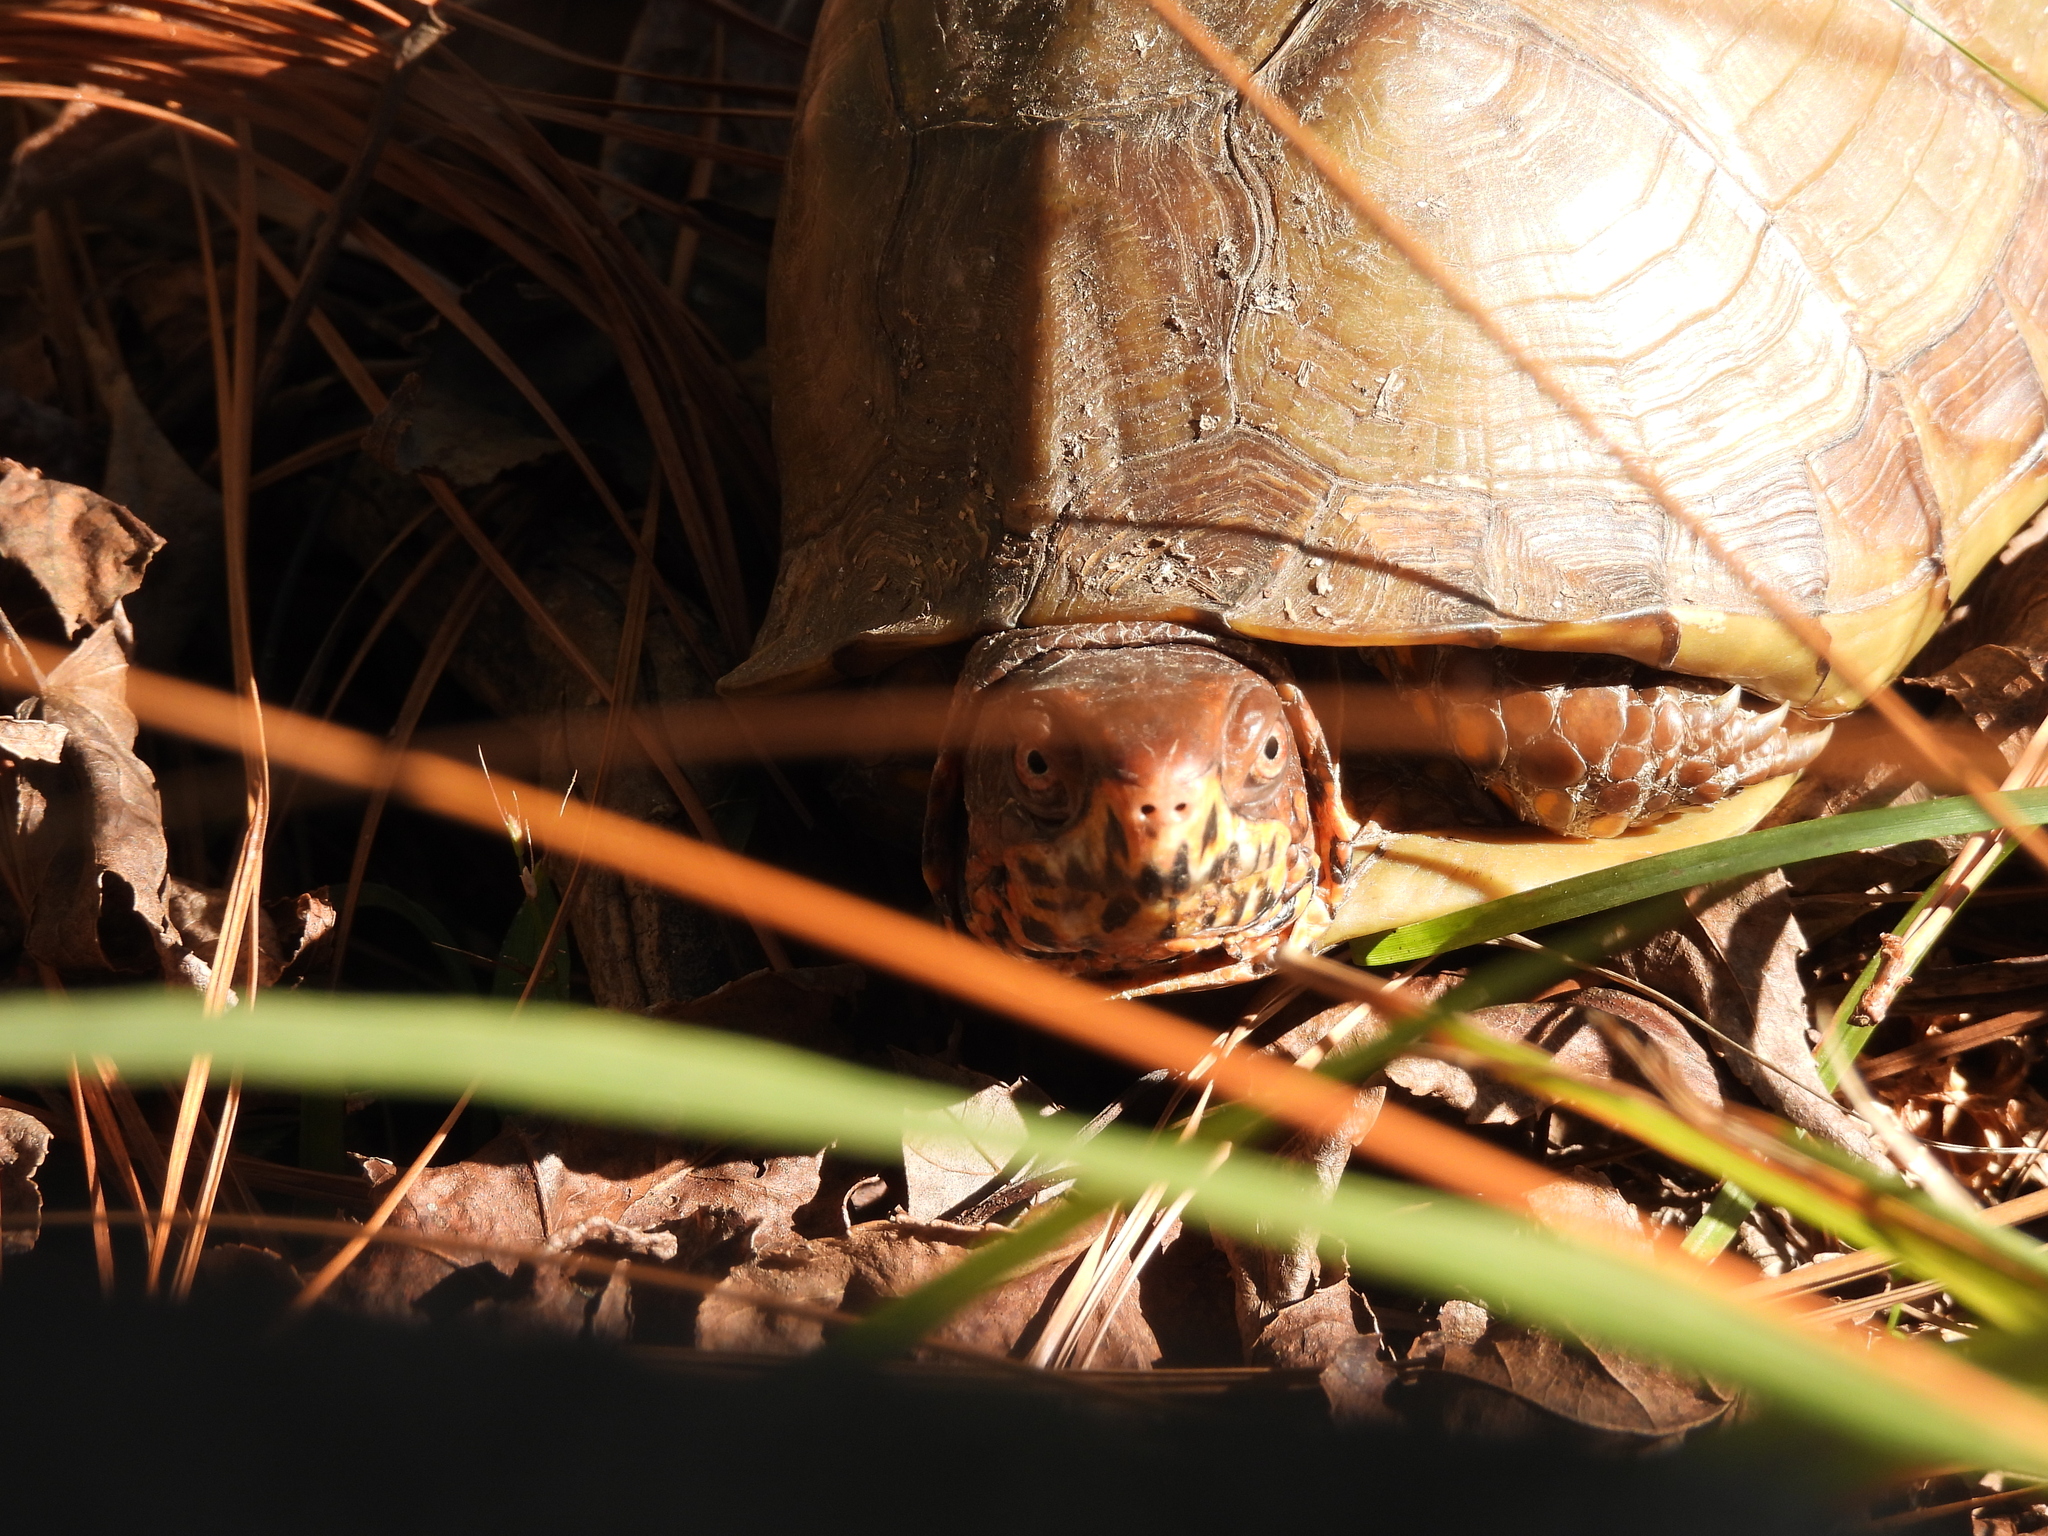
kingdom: Animalia
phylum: Chordata
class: Testudines
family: Emydidae
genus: Terrapene
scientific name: Terrapene carolina
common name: Common box turtle
